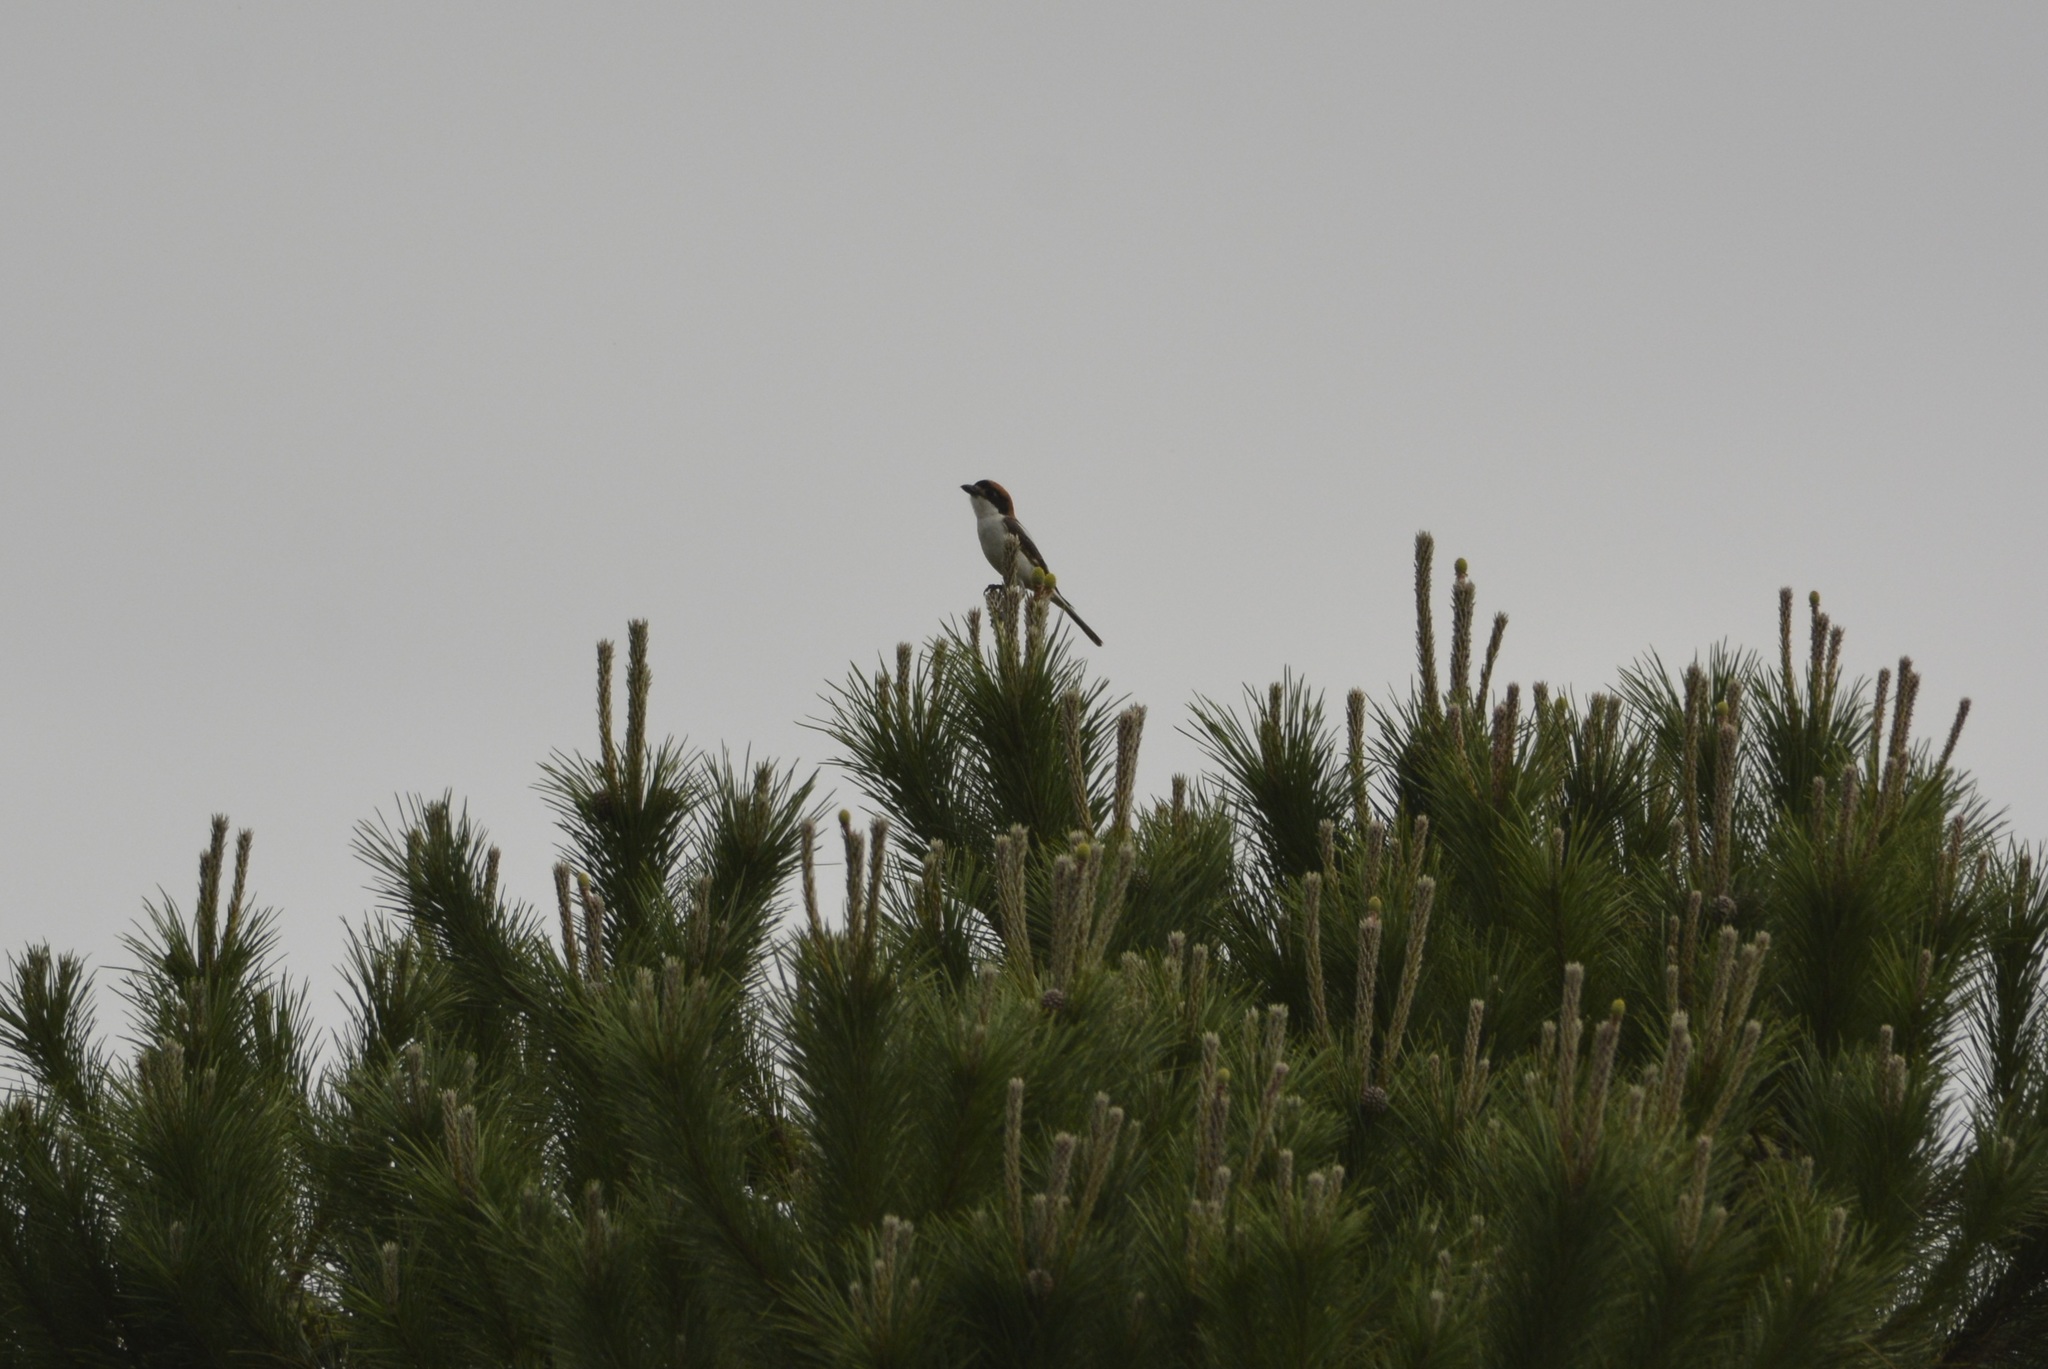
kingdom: Animalia
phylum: Chordata
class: Aves
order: Passeriformes
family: Laniidae
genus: Lanius
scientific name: Lanius senator
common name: Woodchat shrike
